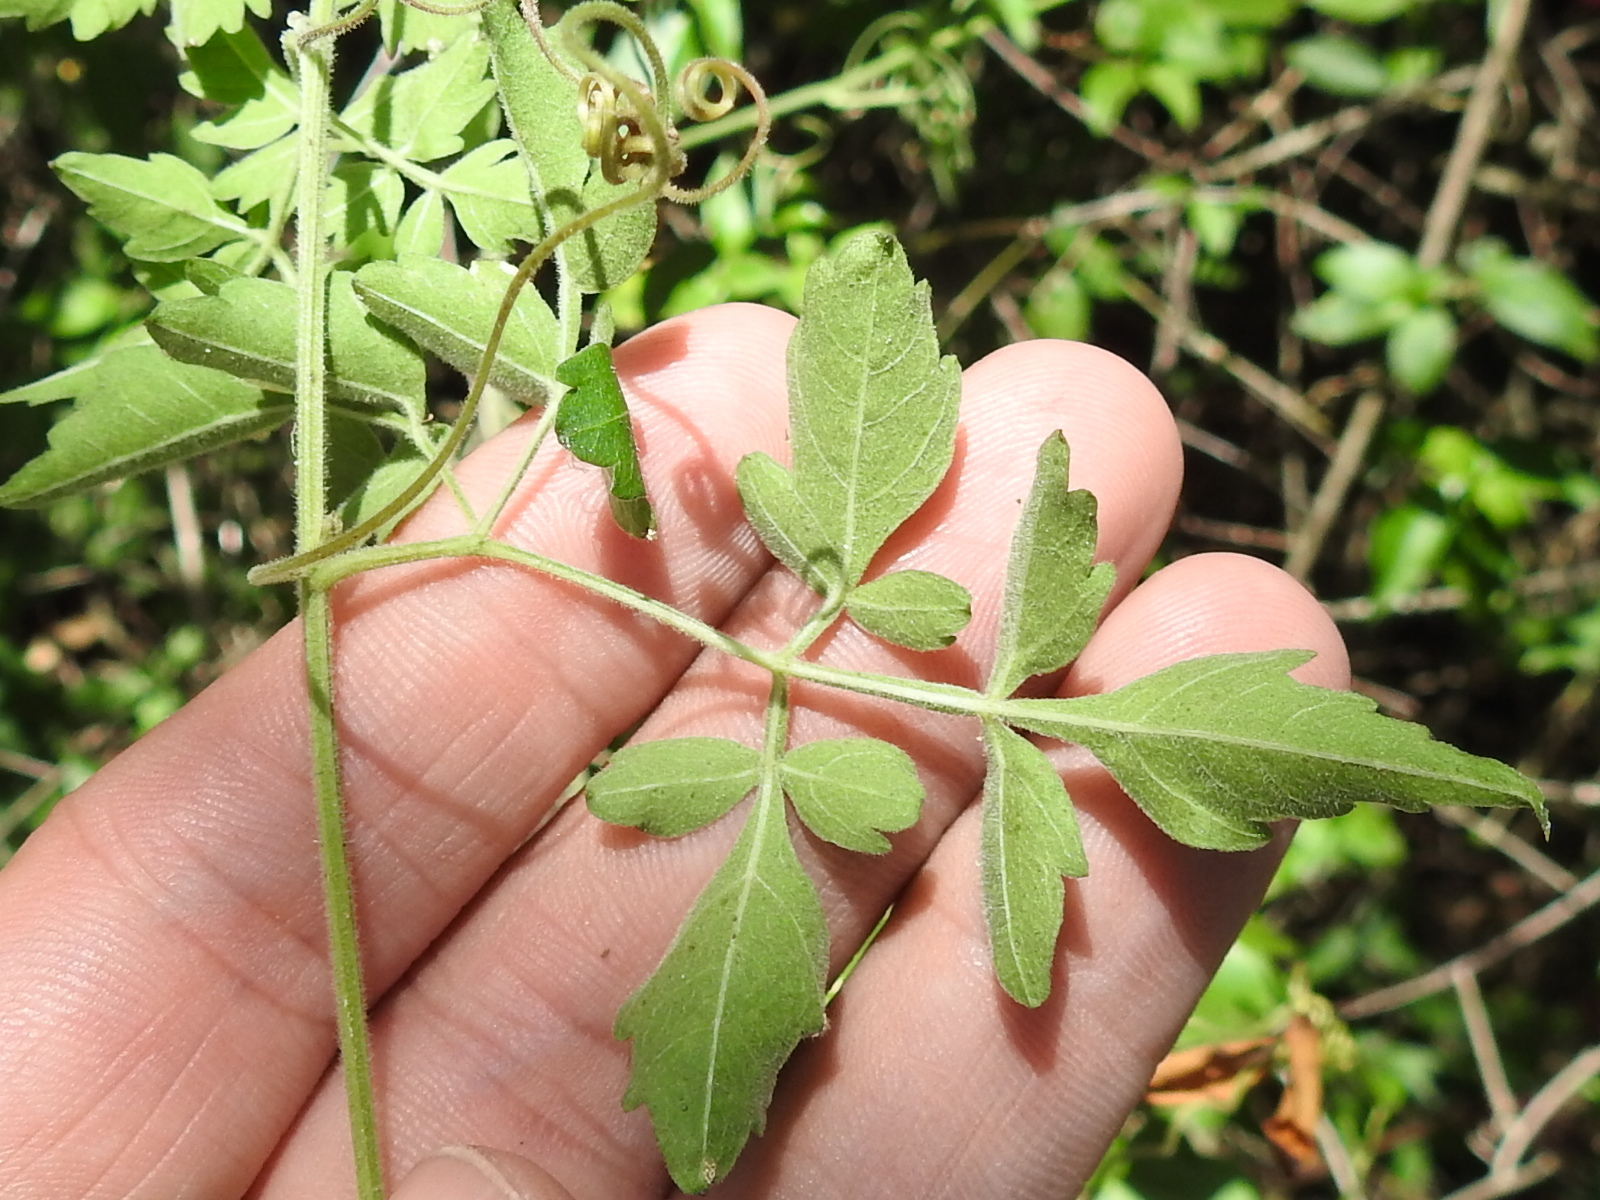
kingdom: Plantae
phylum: Tracheophyta
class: Magnoliopsida
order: Sapindales
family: Sapindaceae
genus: Cardiospermum
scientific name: Cardiospermum corindum
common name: Faux persil
